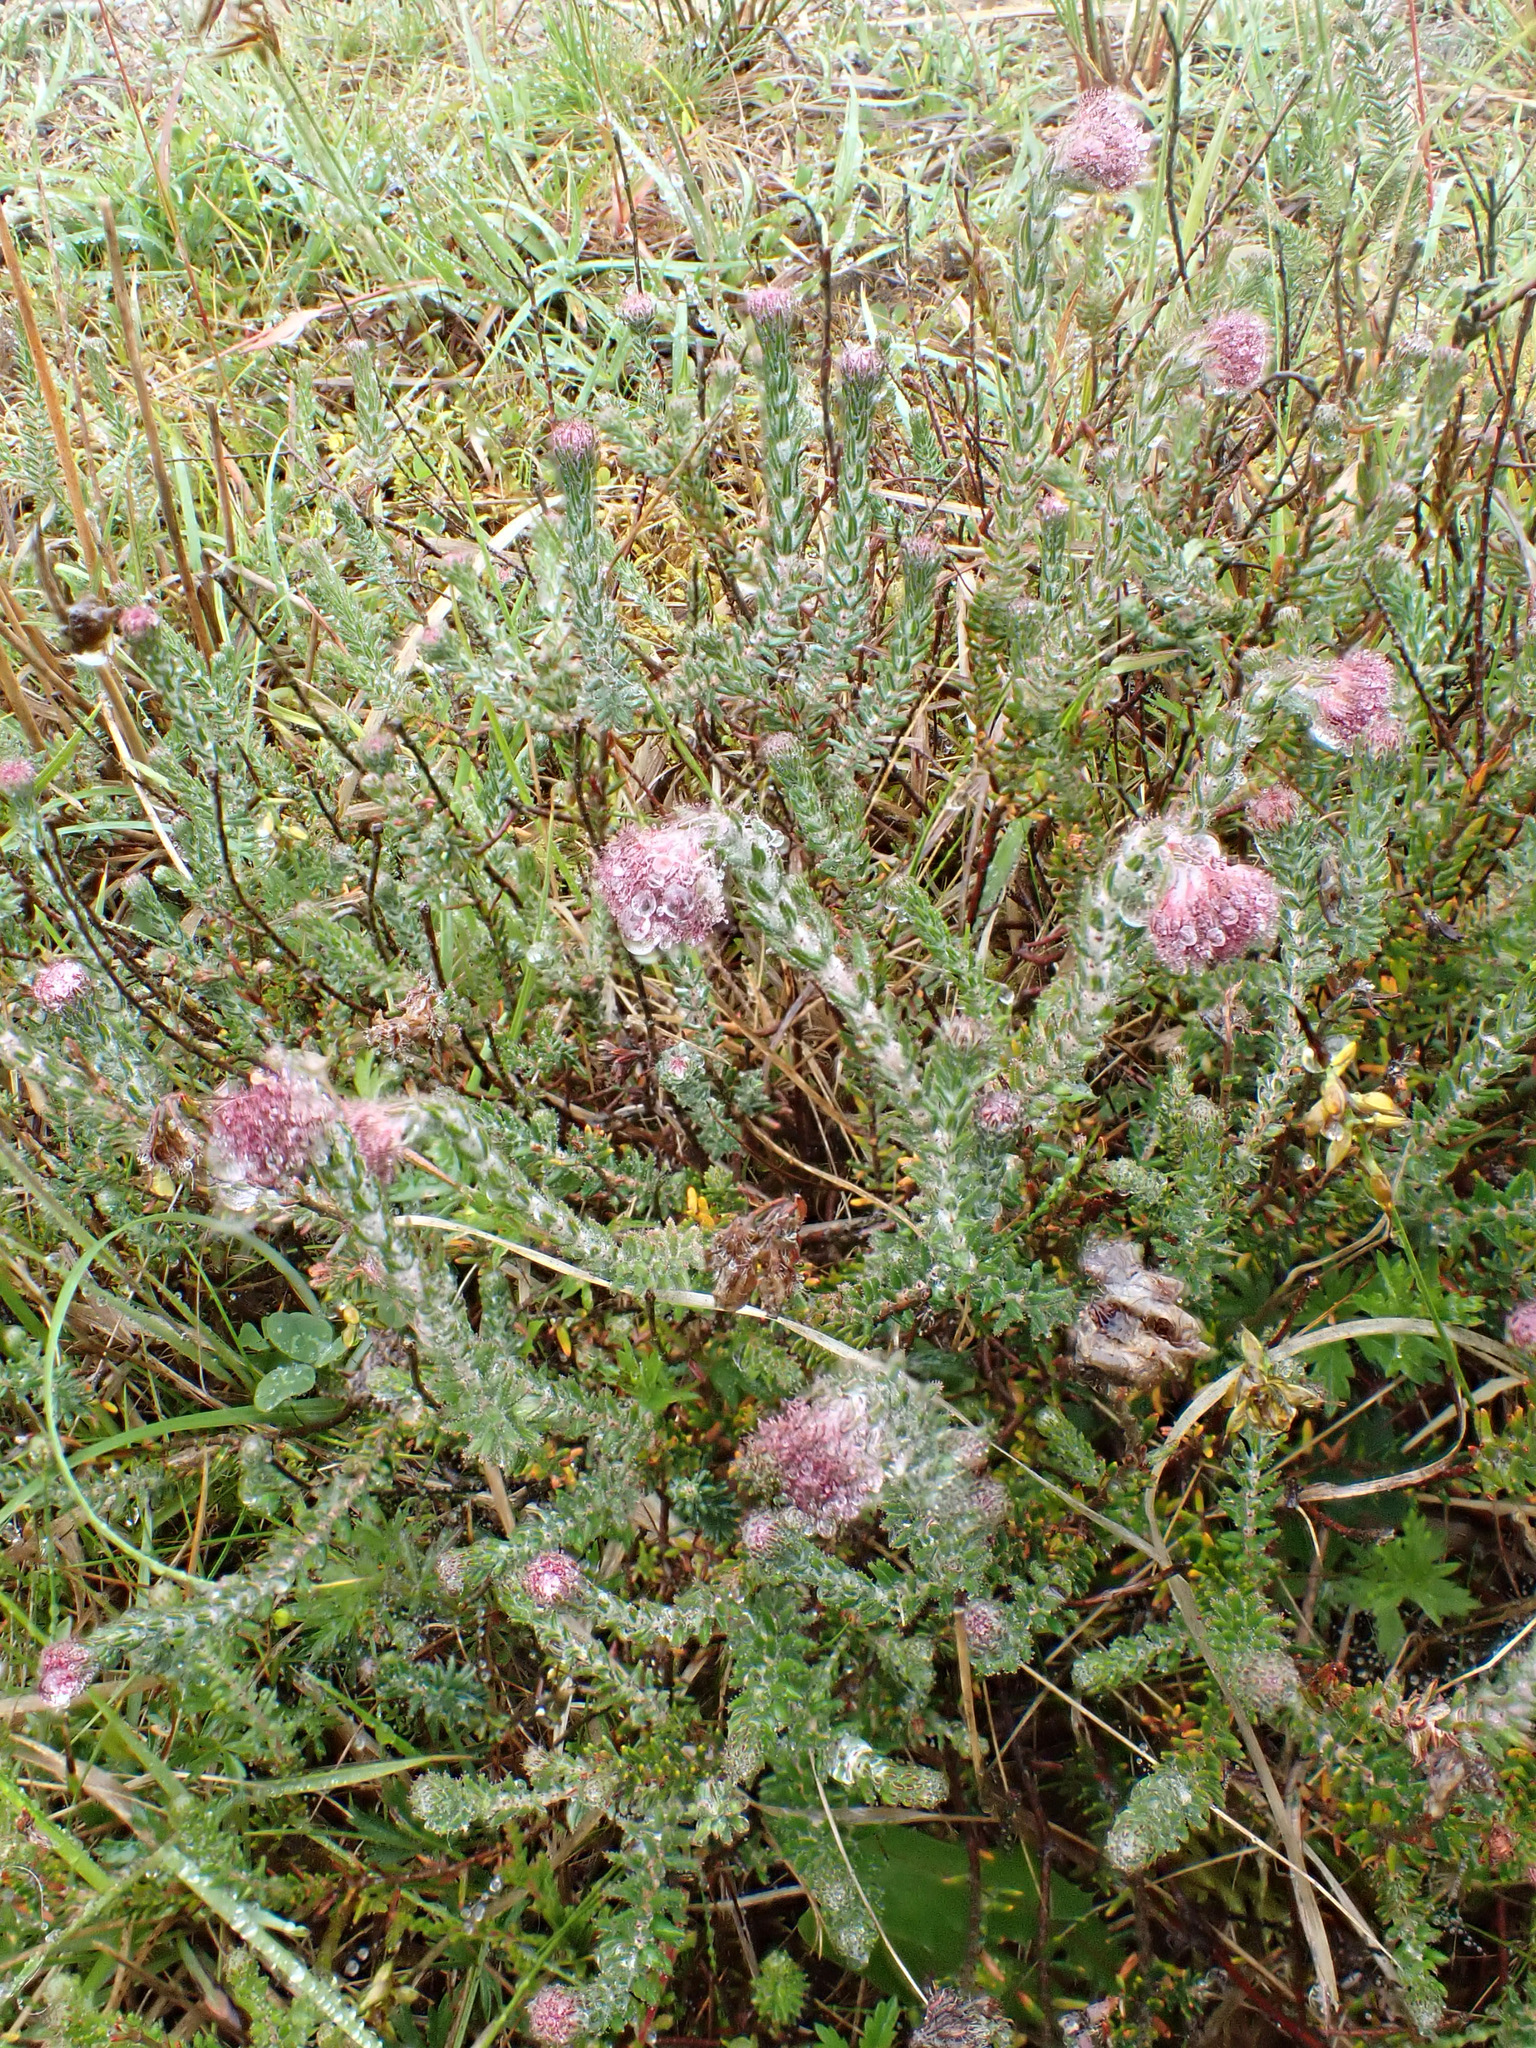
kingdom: Plantae
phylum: Tracheophyta
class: Magnoliopsida
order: Ericales
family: Ericaceae
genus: Erica
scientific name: Erica tetralix
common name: Cross-leaved heath
